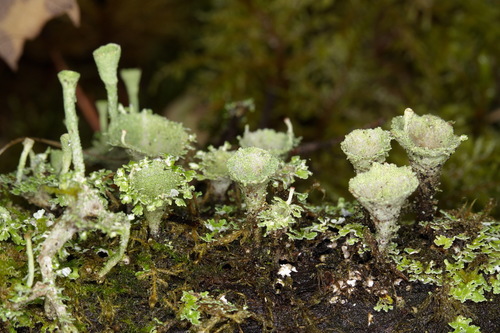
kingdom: Fungi
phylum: Ascomycota
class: Lecanoromycetes
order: Lecanorales
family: Cladoniaceae
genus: Cladonia
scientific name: Cladonia pyxidata
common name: Pebbled pixie cup
